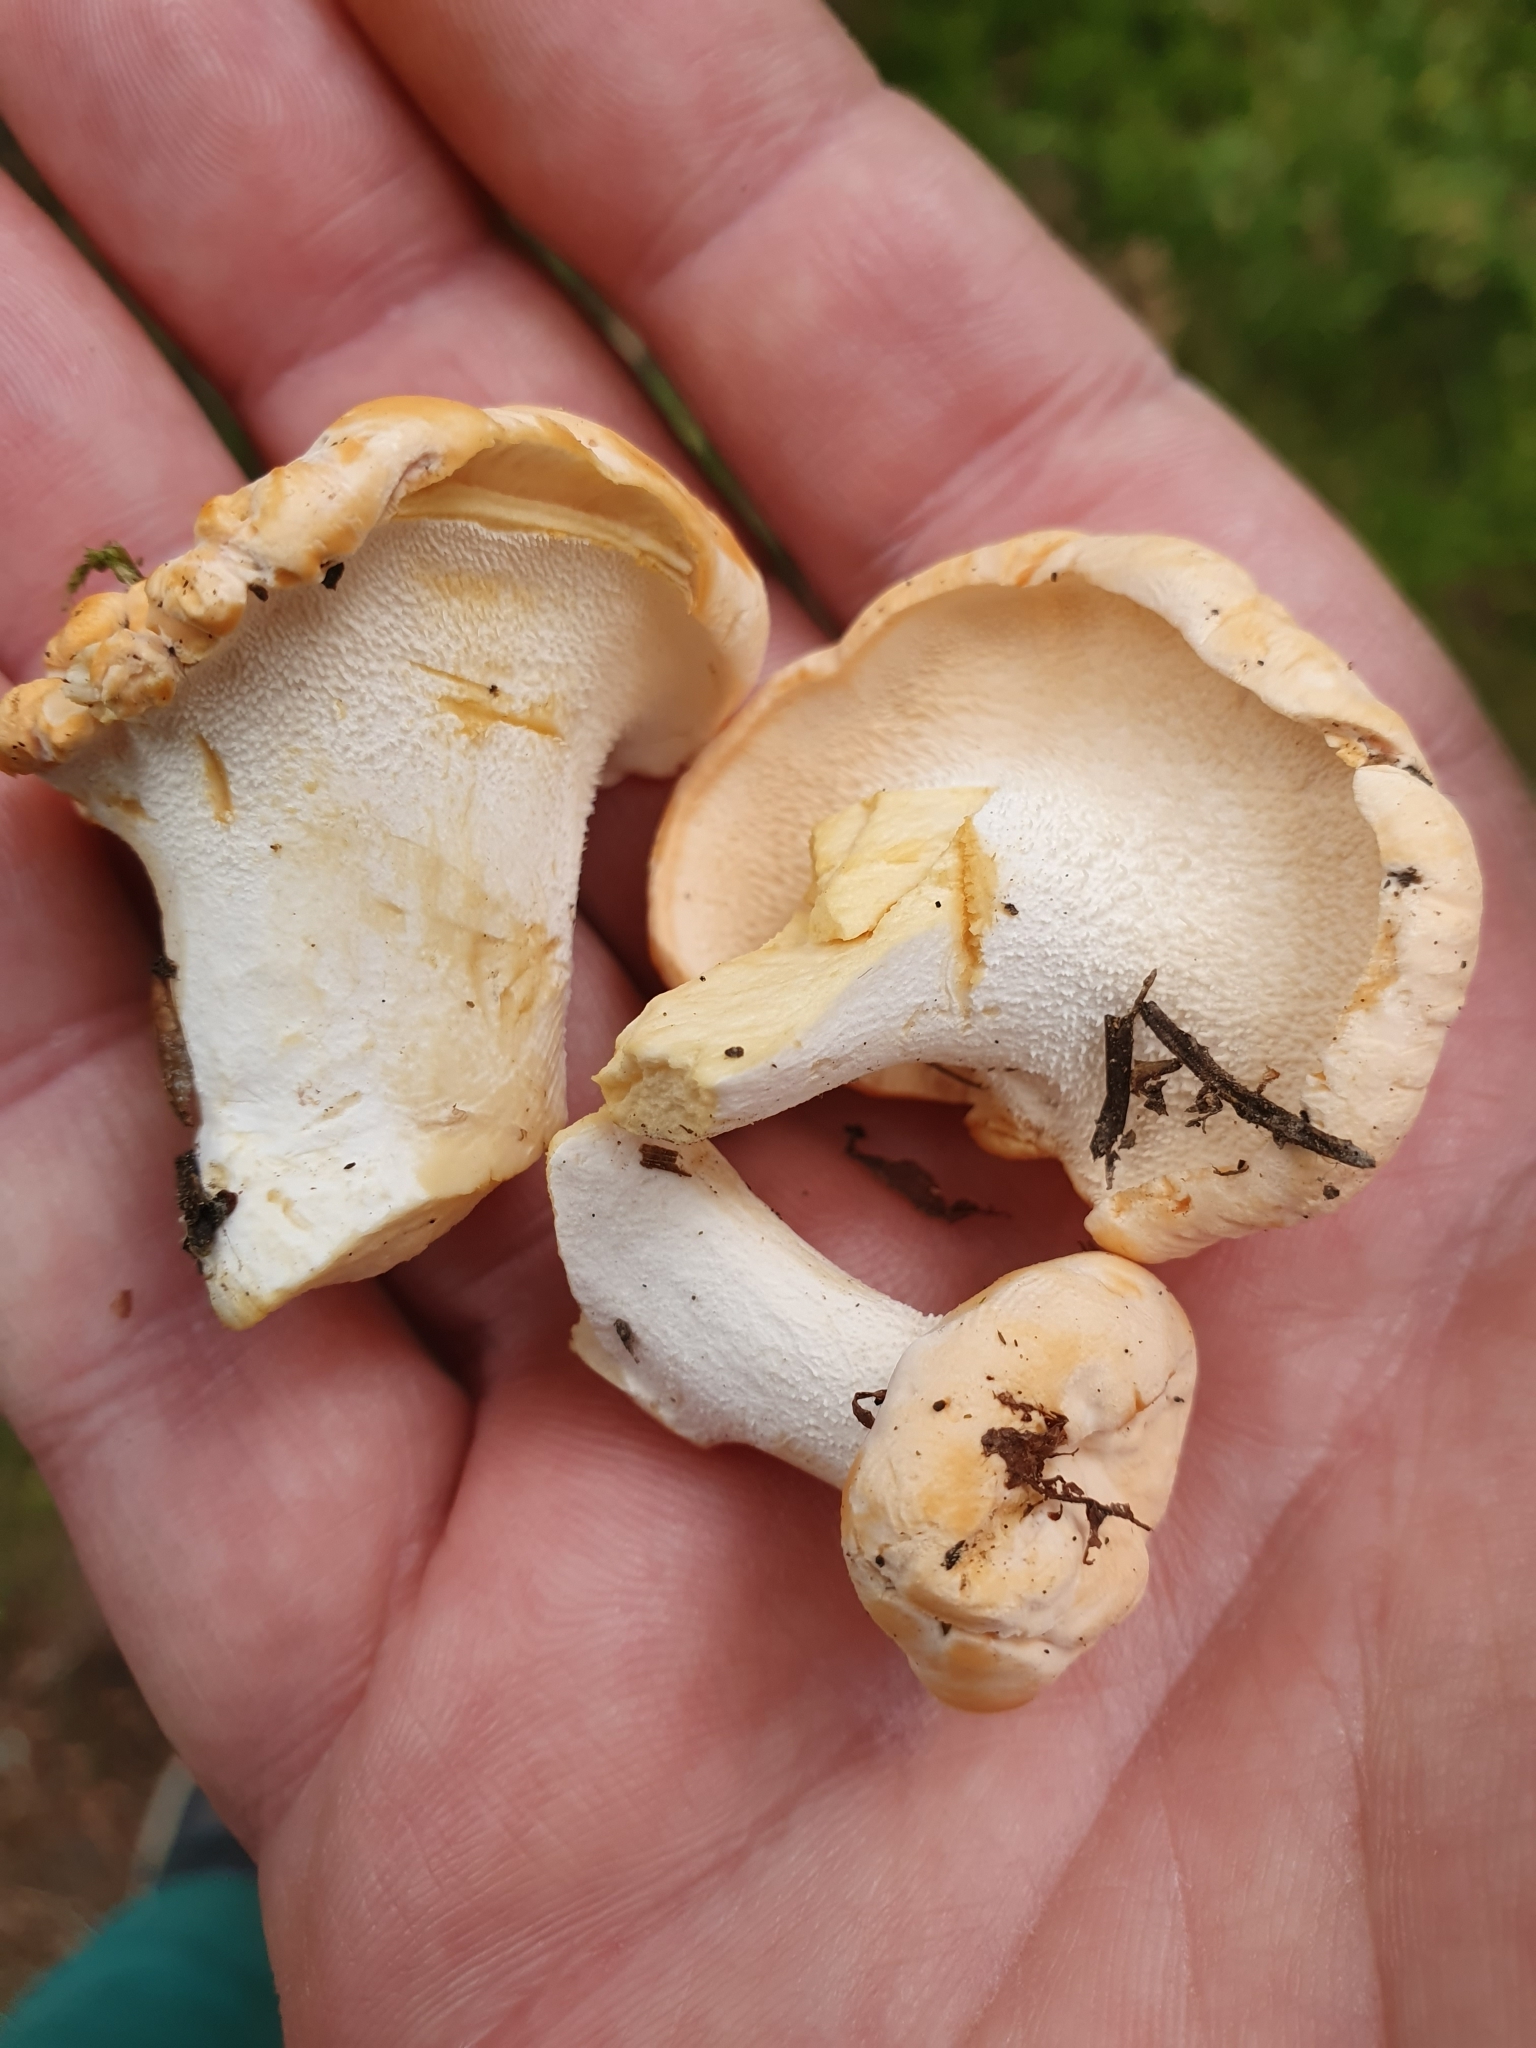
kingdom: Fungi
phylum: Basidiomycota
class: Agaricomycetes
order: Cantharellales
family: Hydnaceae
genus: Hydnum
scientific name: Hydnum repandum
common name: Wood hedgehog
